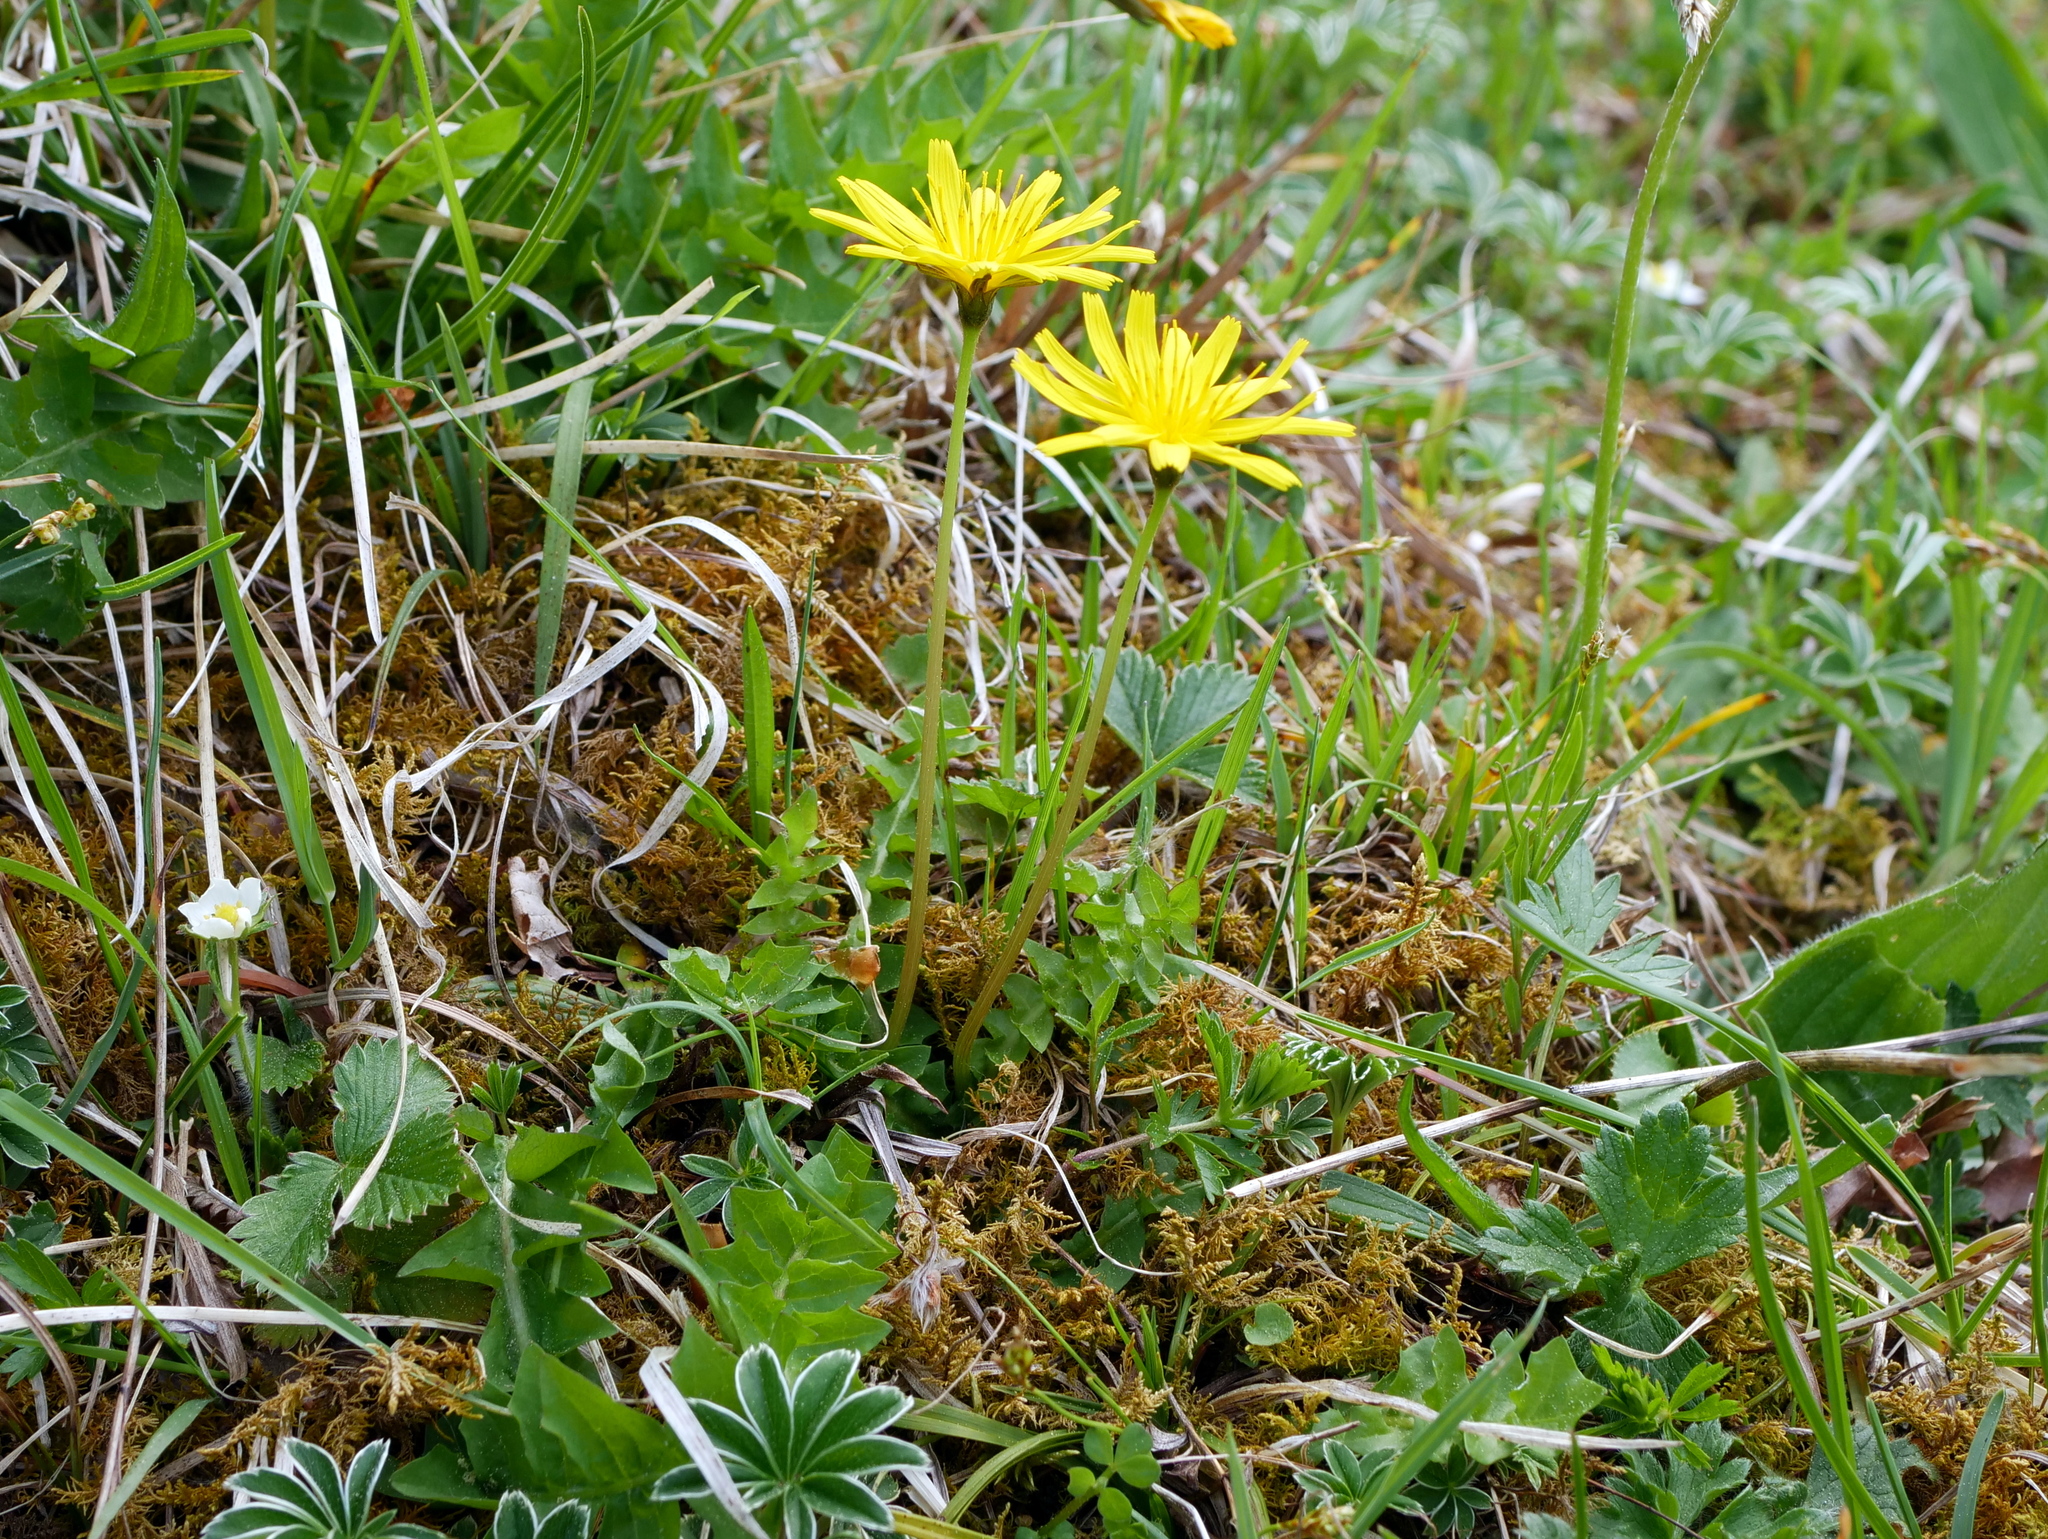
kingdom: Plantae
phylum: Tracheophyta
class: Magnoliopsida
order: Asterales
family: Asteraceae
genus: Aposeris
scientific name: Aposeris foetida
